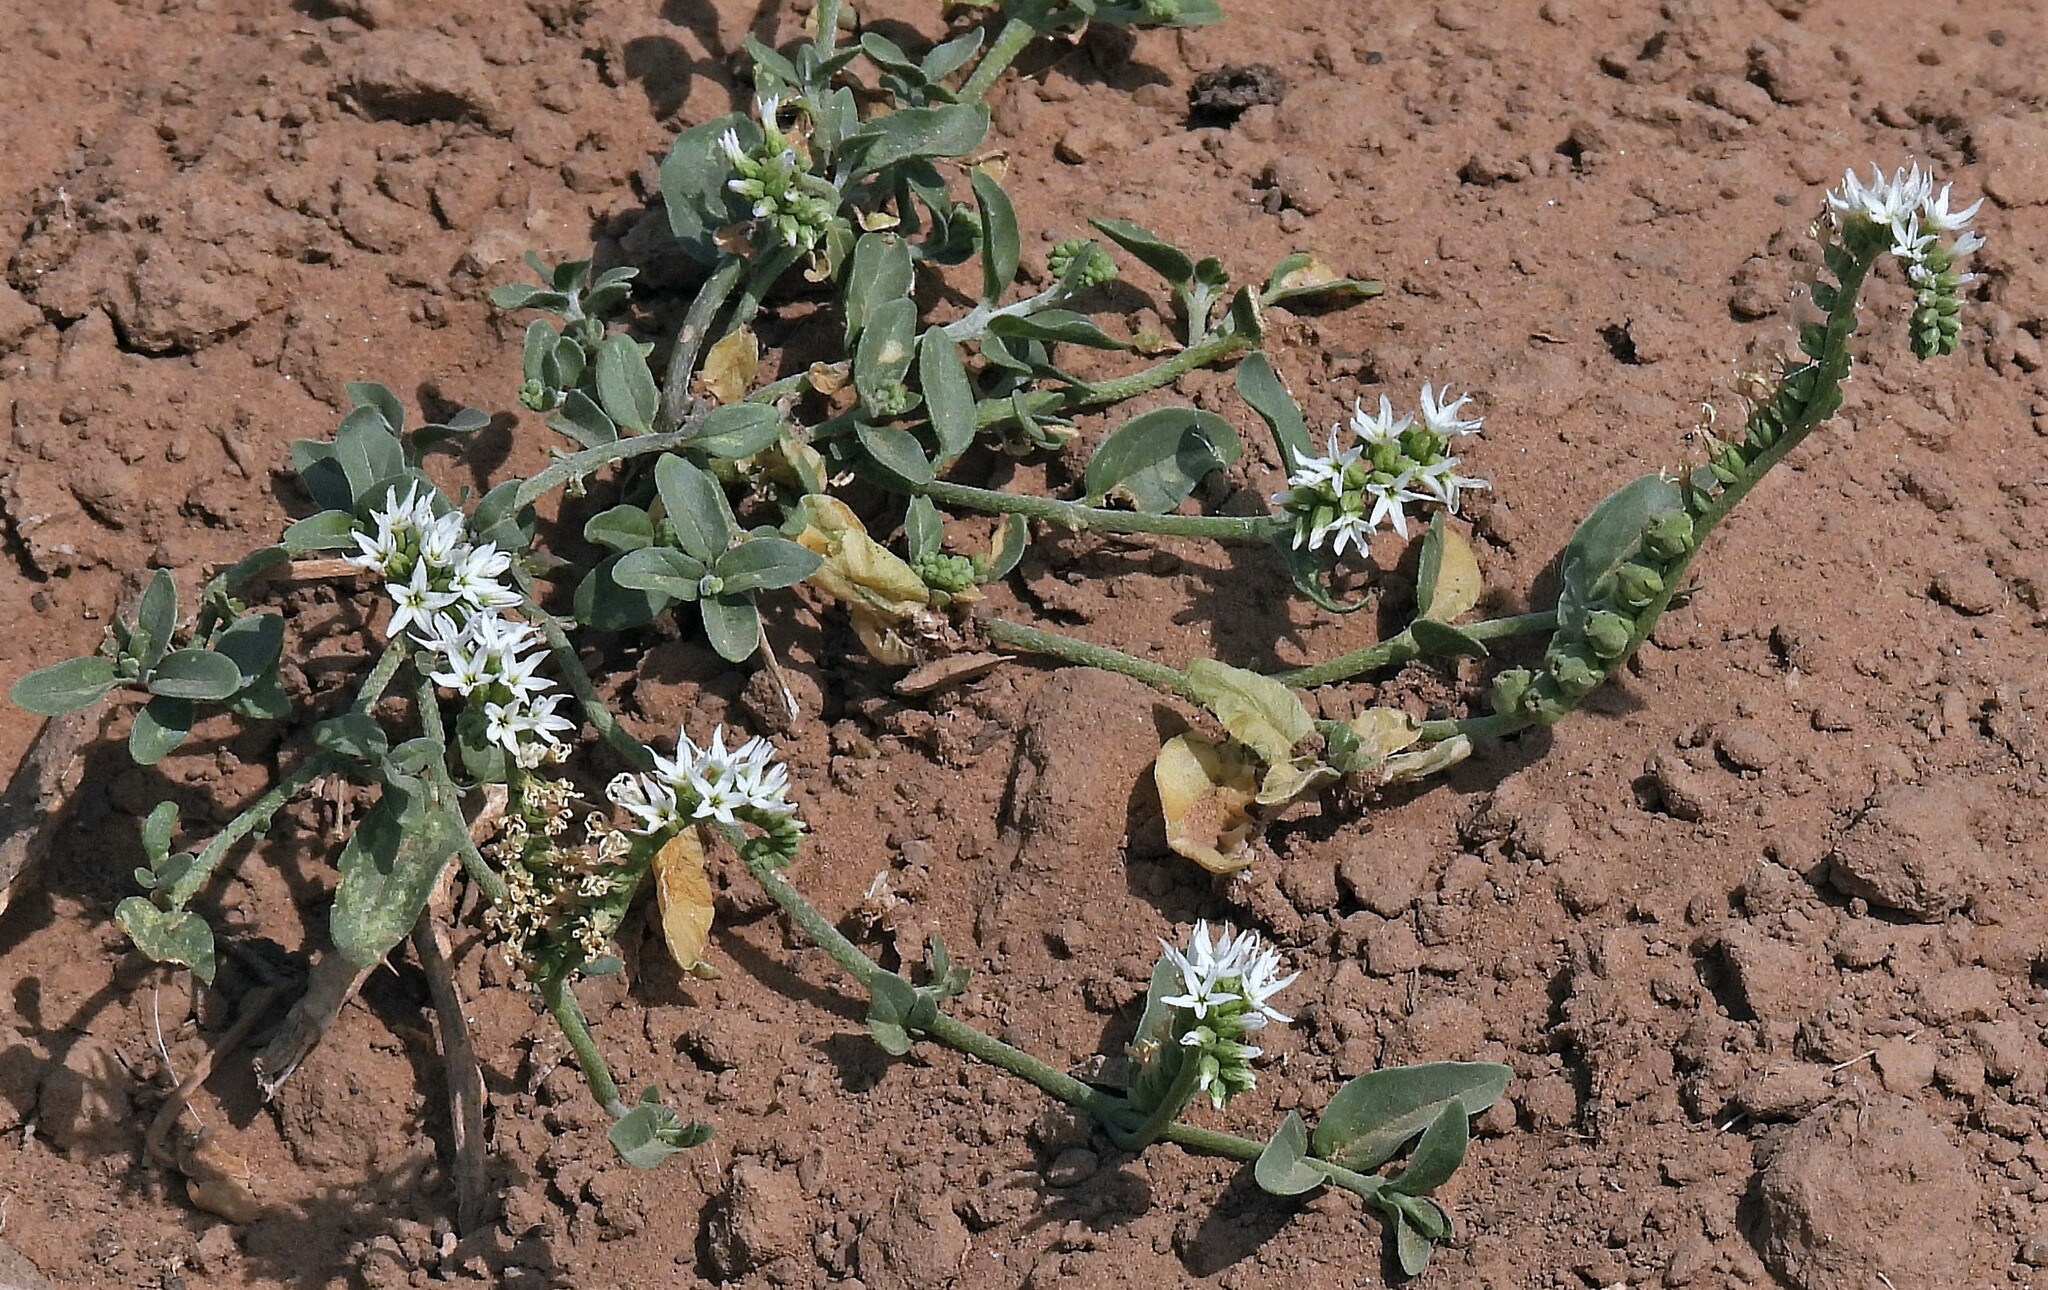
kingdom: Plantae
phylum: Tracheophyta
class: Magnoliopsida
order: Boraginales
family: Heliotropiaceae
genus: Heliotropium
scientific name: Heliotropium veronicifolium
